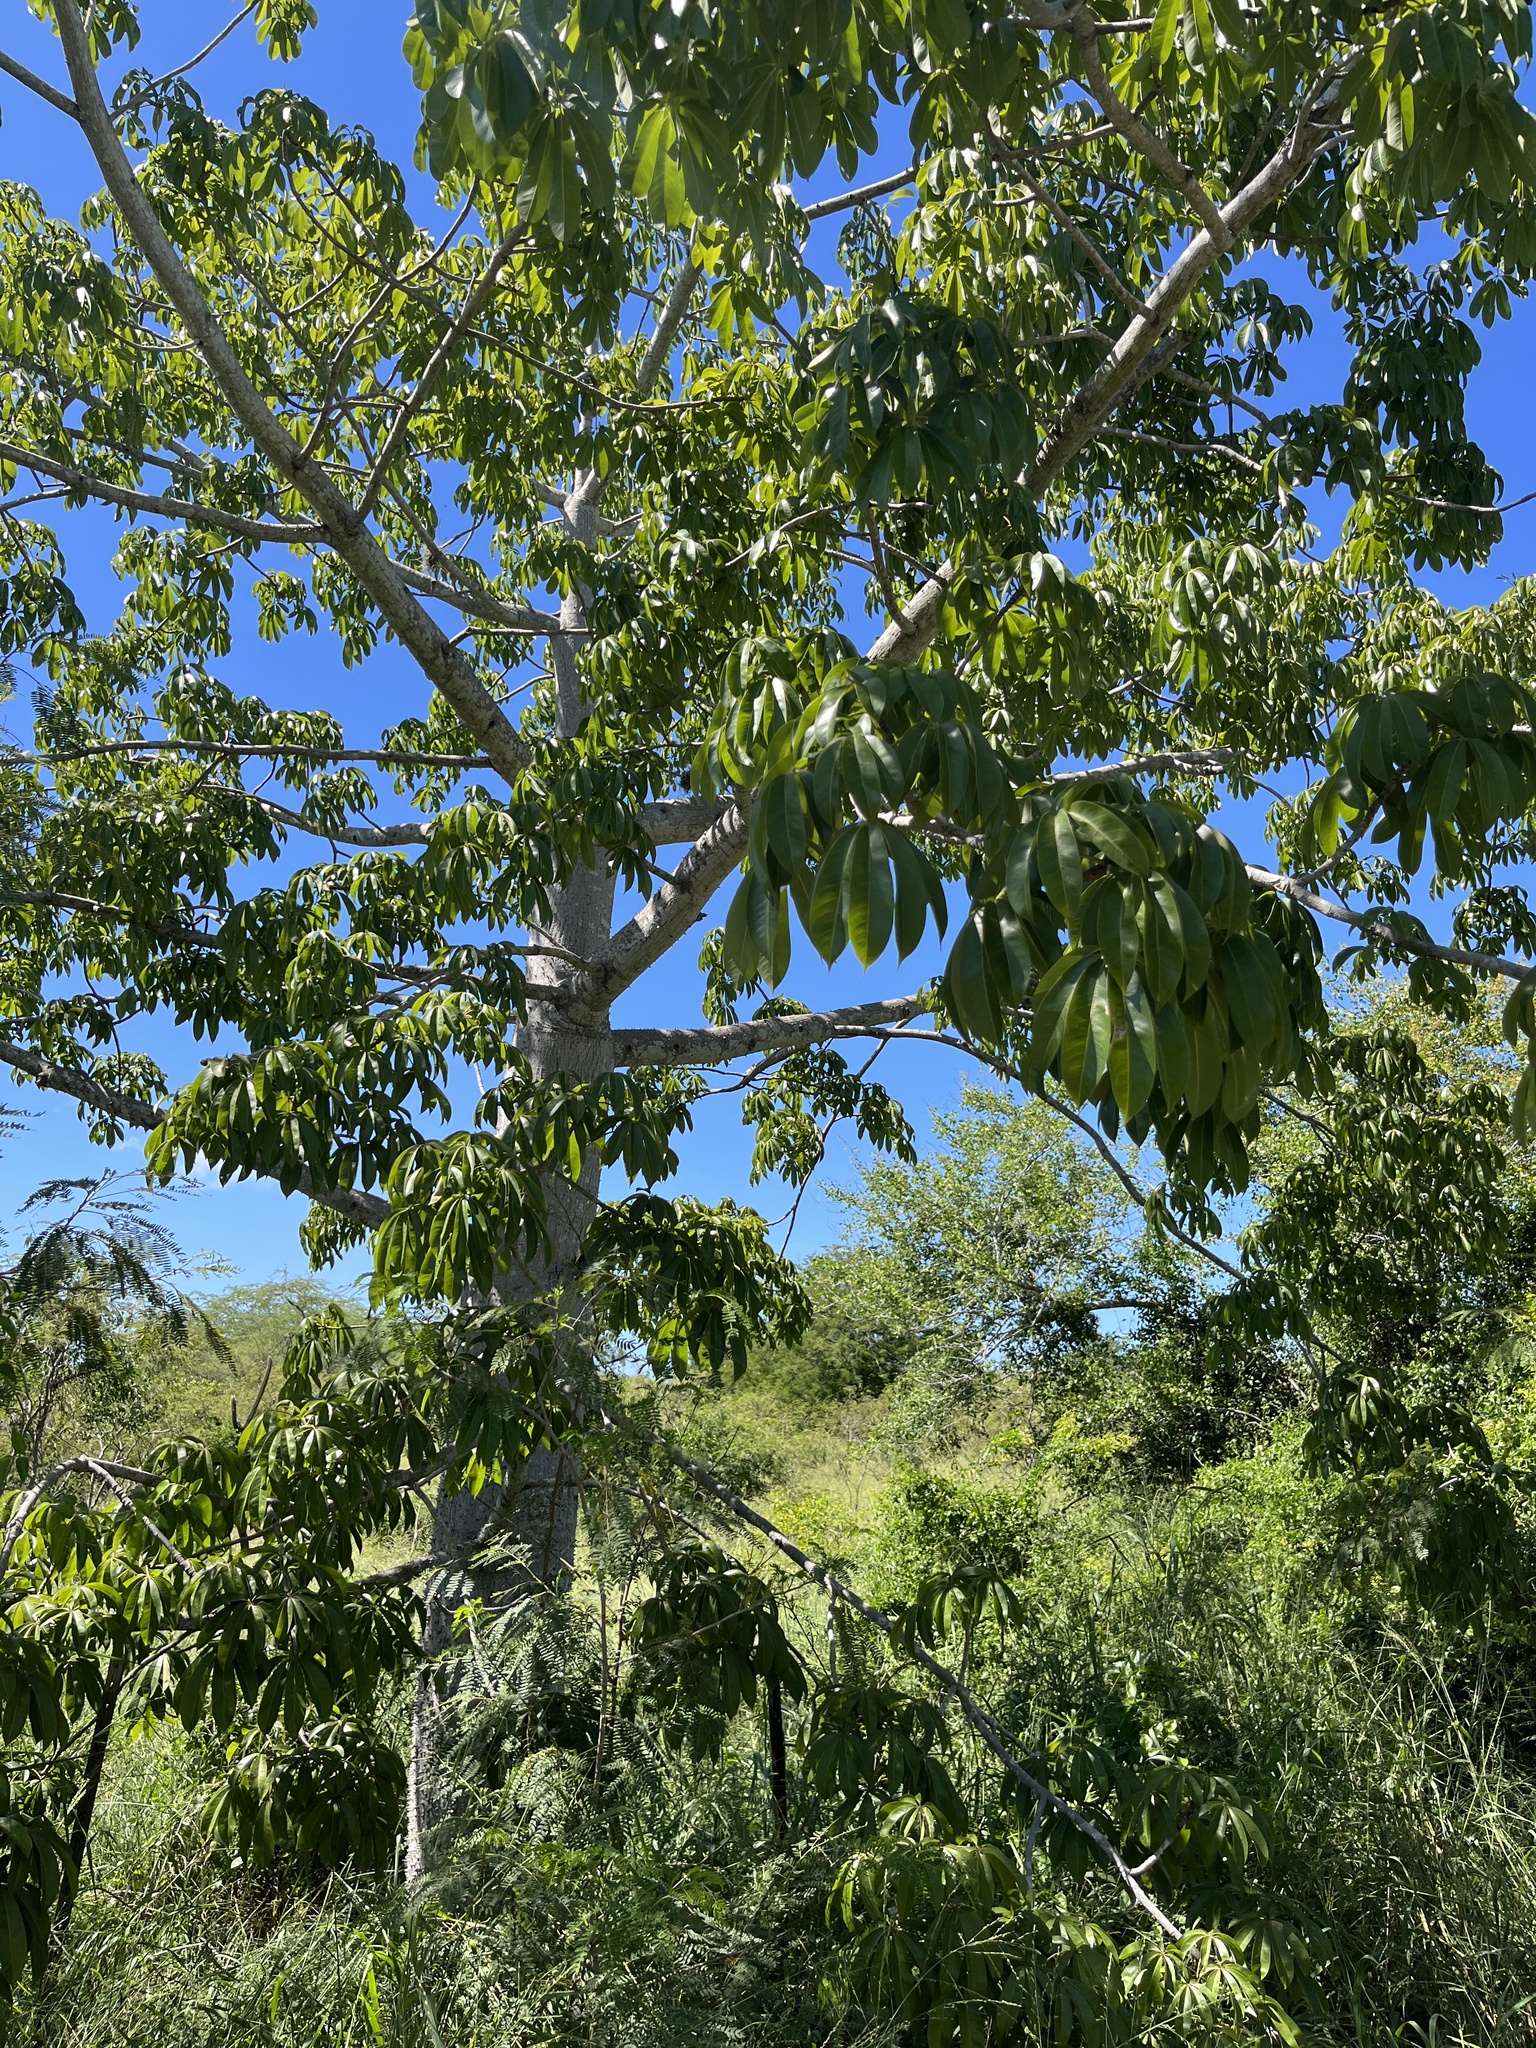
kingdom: Plantae
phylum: Tracheophyta
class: Magnoliopsida
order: Malvales
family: Malvaceae
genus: Ceiba
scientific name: Ceiba pentandra
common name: Kapok
